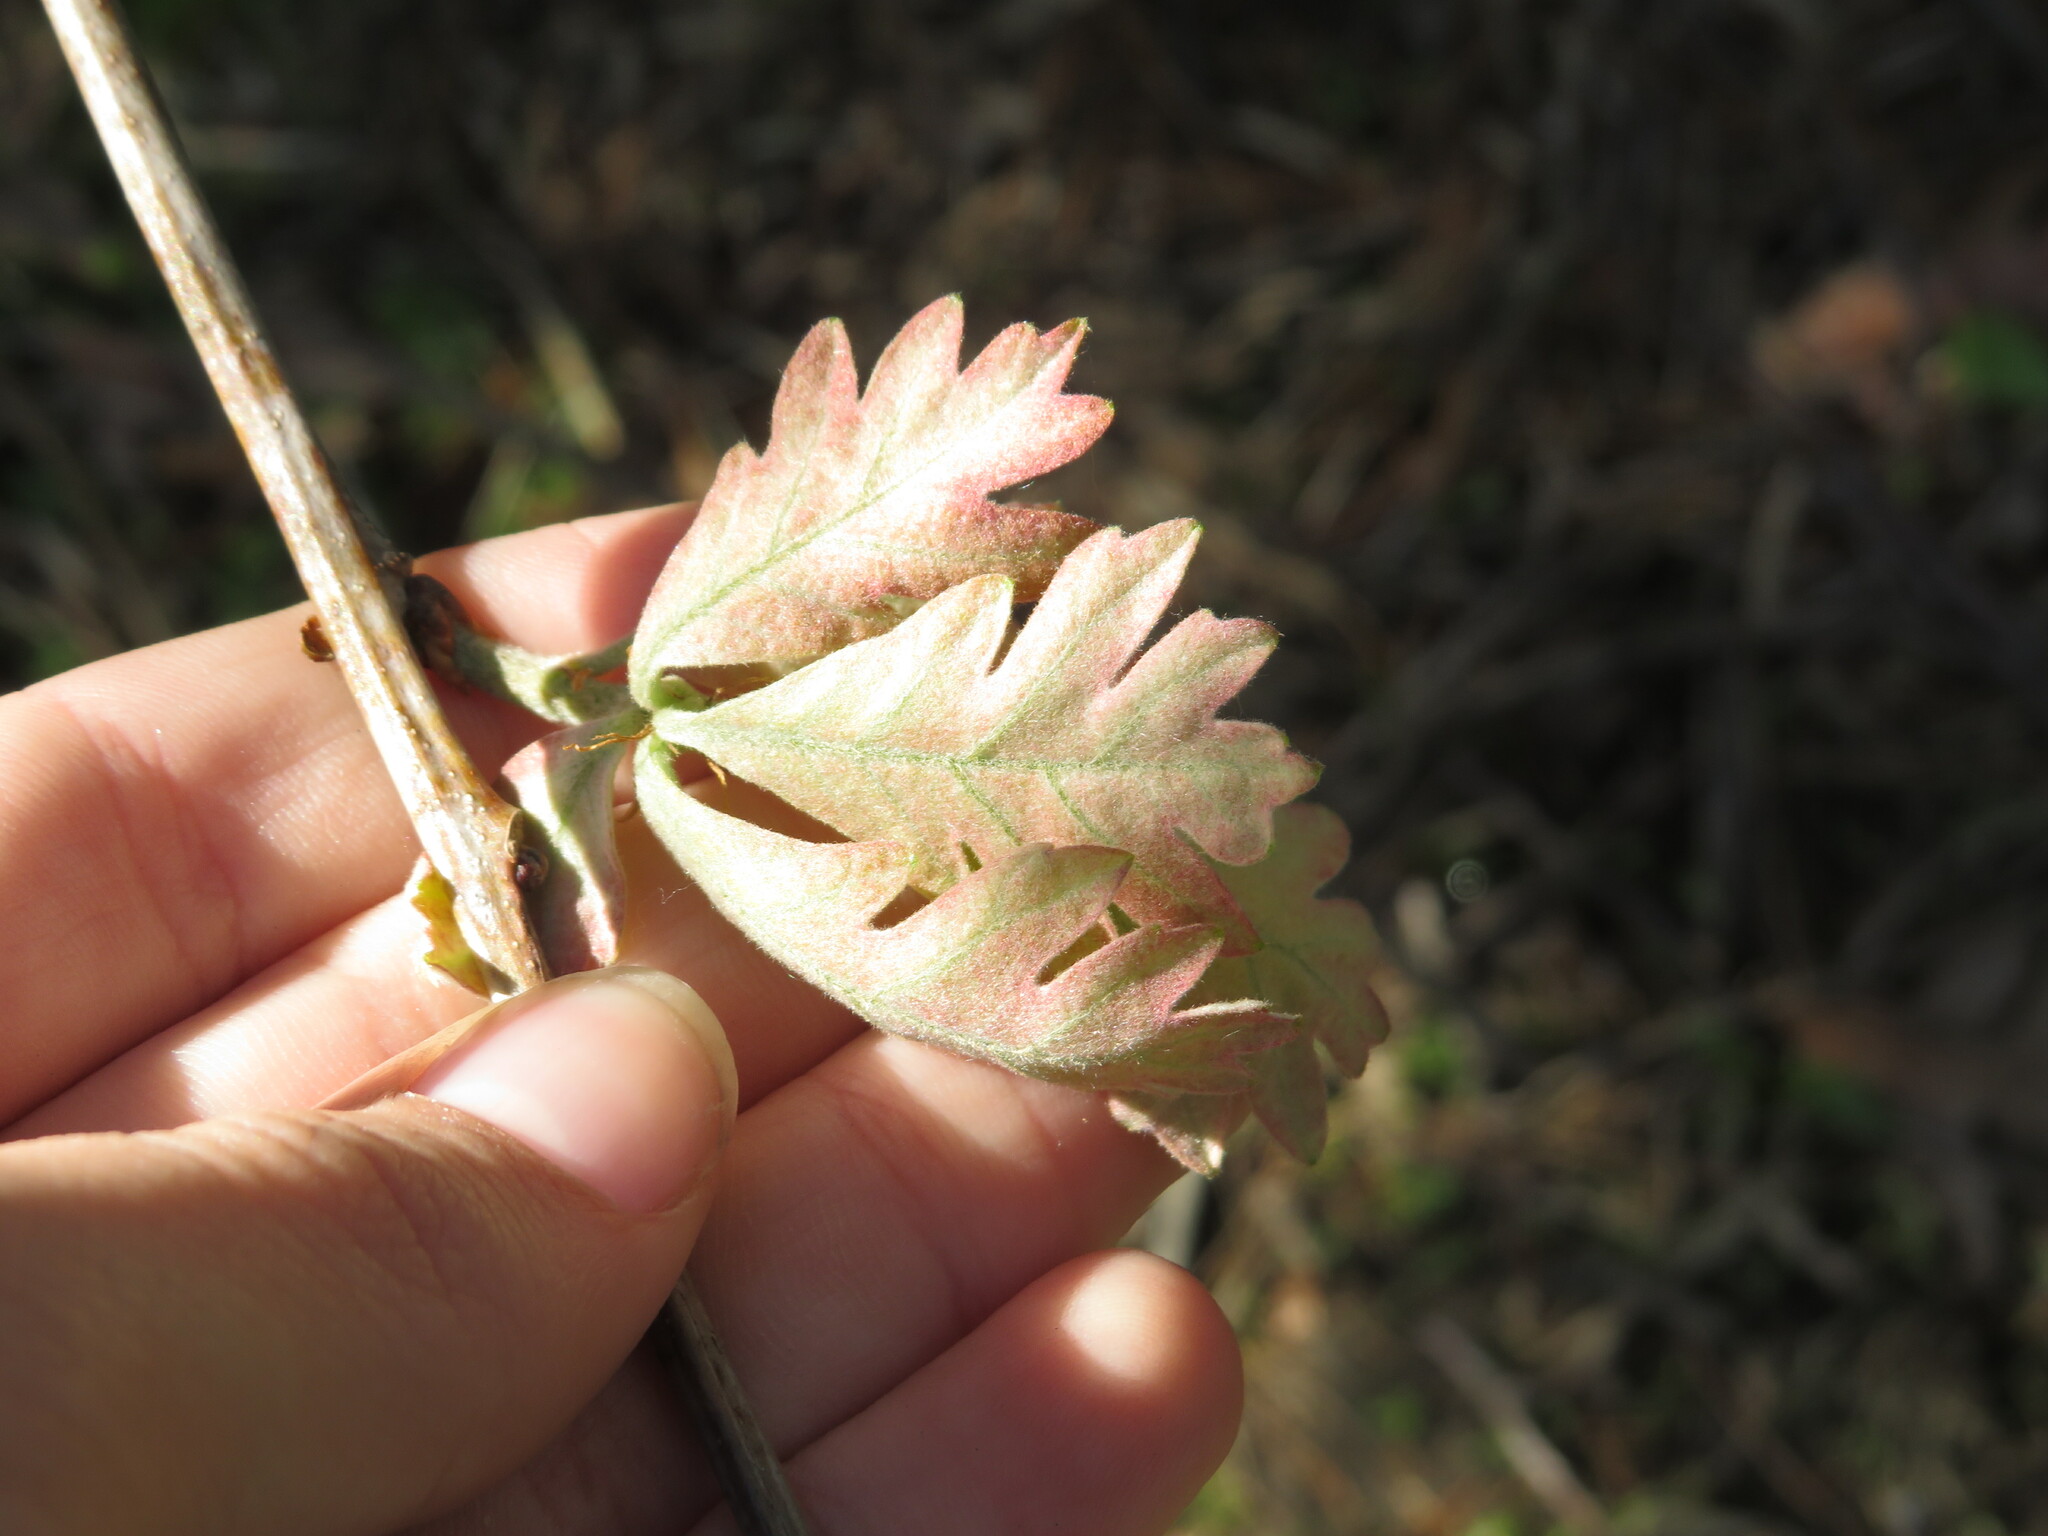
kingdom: Plantae
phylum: Tracheophyta
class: Magnoliopsida
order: Fagales
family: Fagaceae
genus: Quercus
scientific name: Quercus alba
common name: White oak
